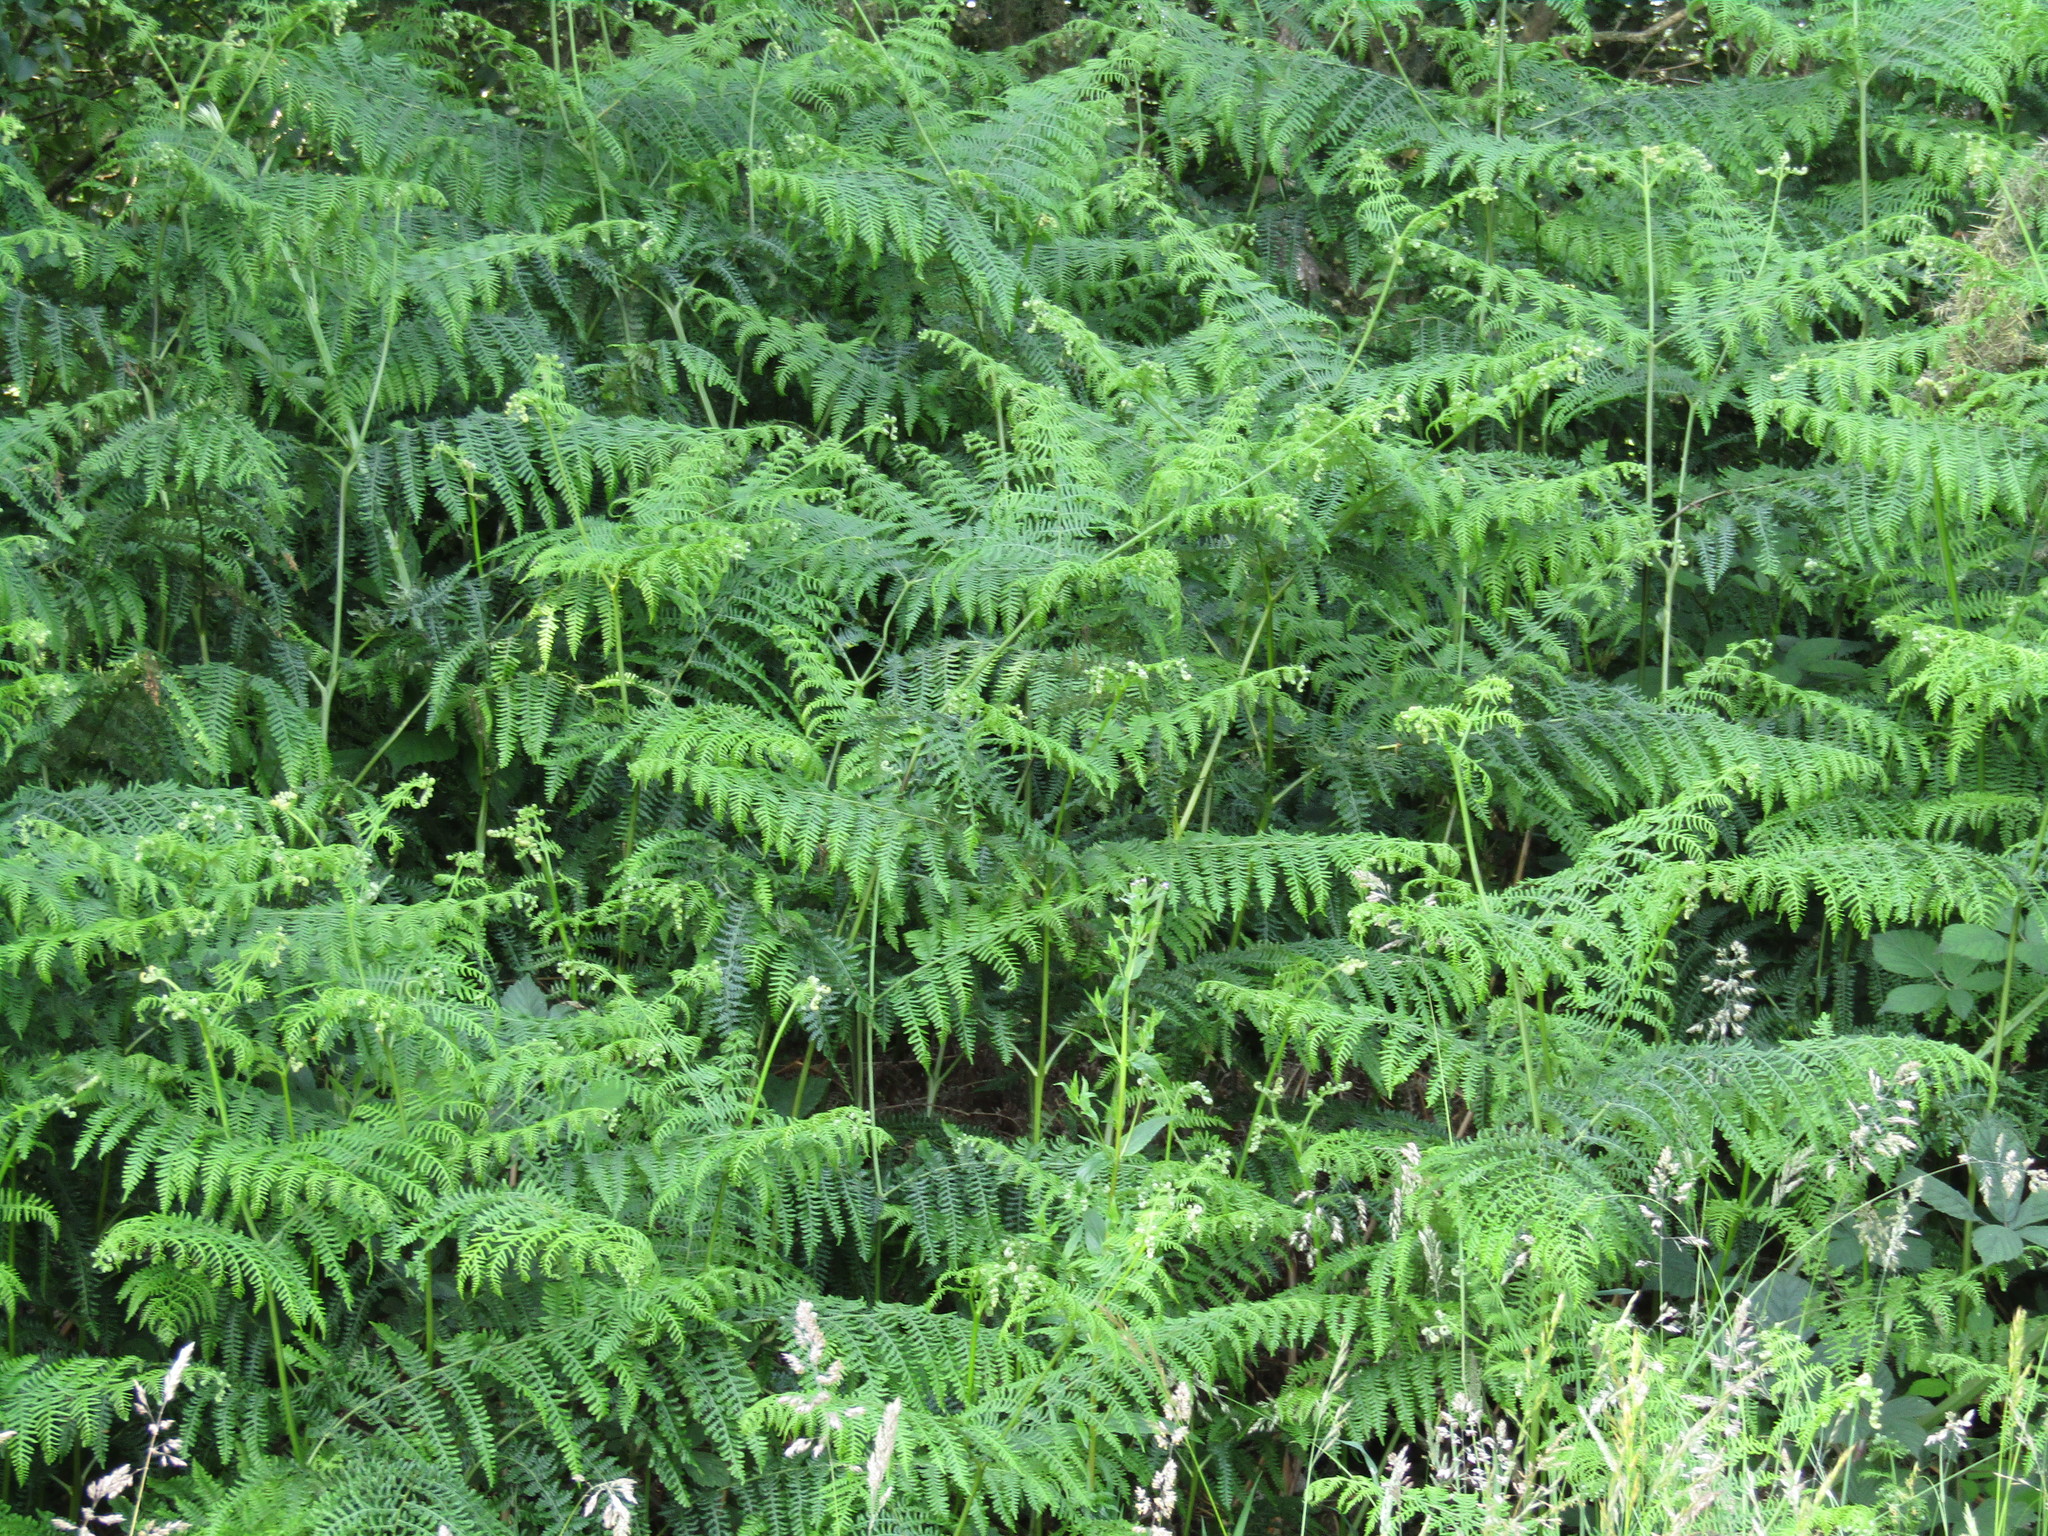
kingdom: Plantae
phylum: Tracheophyta
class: Polypodiopsida
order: Polypodiales
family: Dennstaedtiaceae
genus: Pteridium
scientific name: Pteridium aquilinum
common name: Bracken
